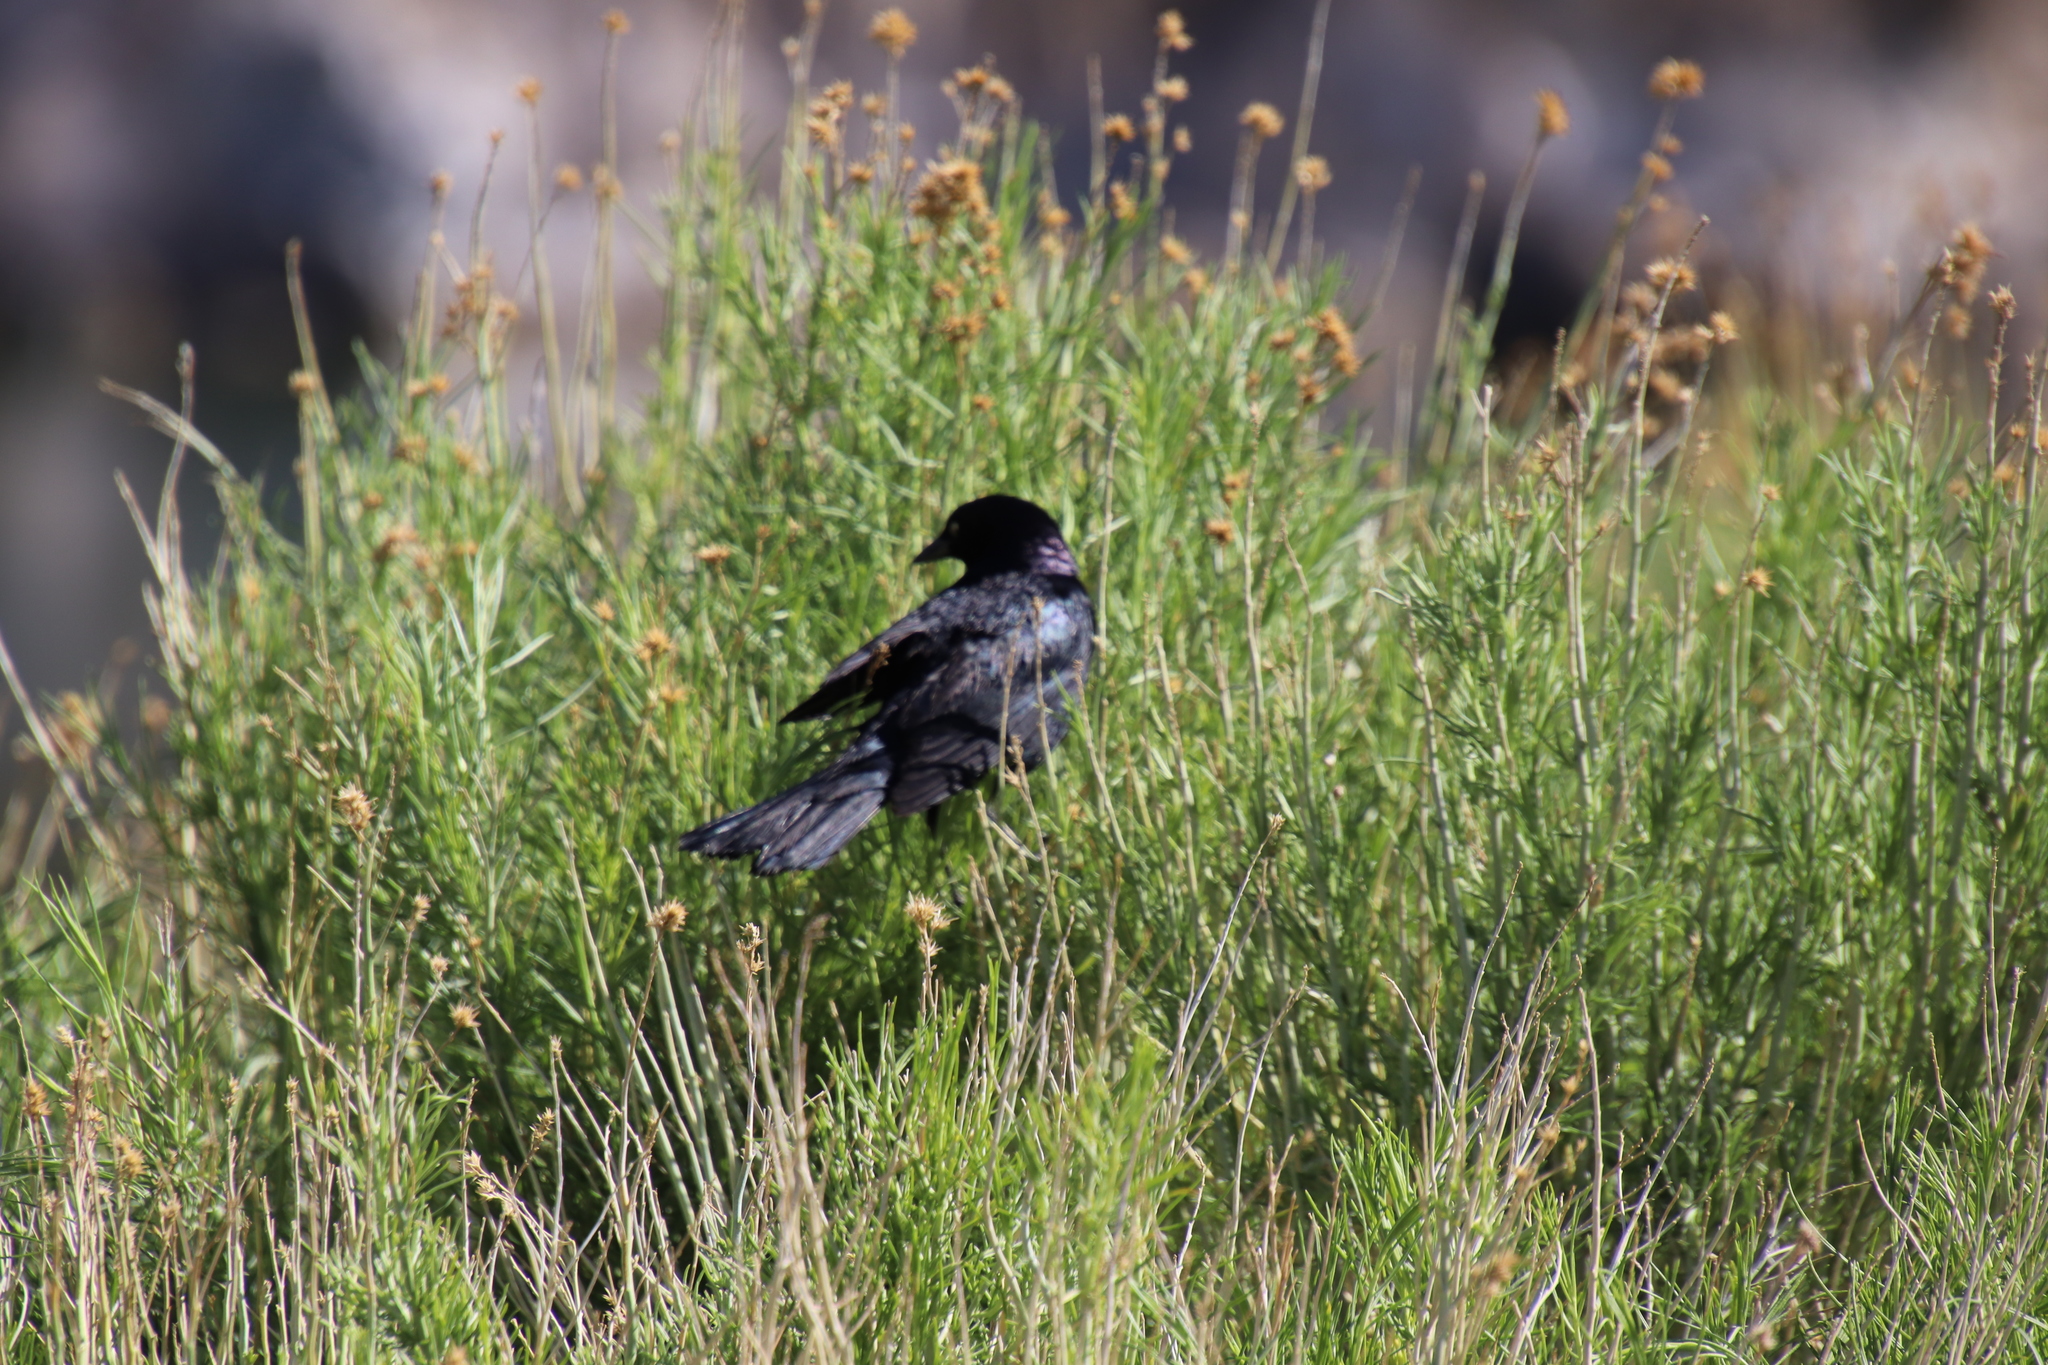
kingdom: Animalia
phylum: Chordata
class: Aves
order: Passeriformes
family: Icteridae
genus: Euphagus
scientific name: Euphagus cyanocephalus
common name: Brewer's blackbird
